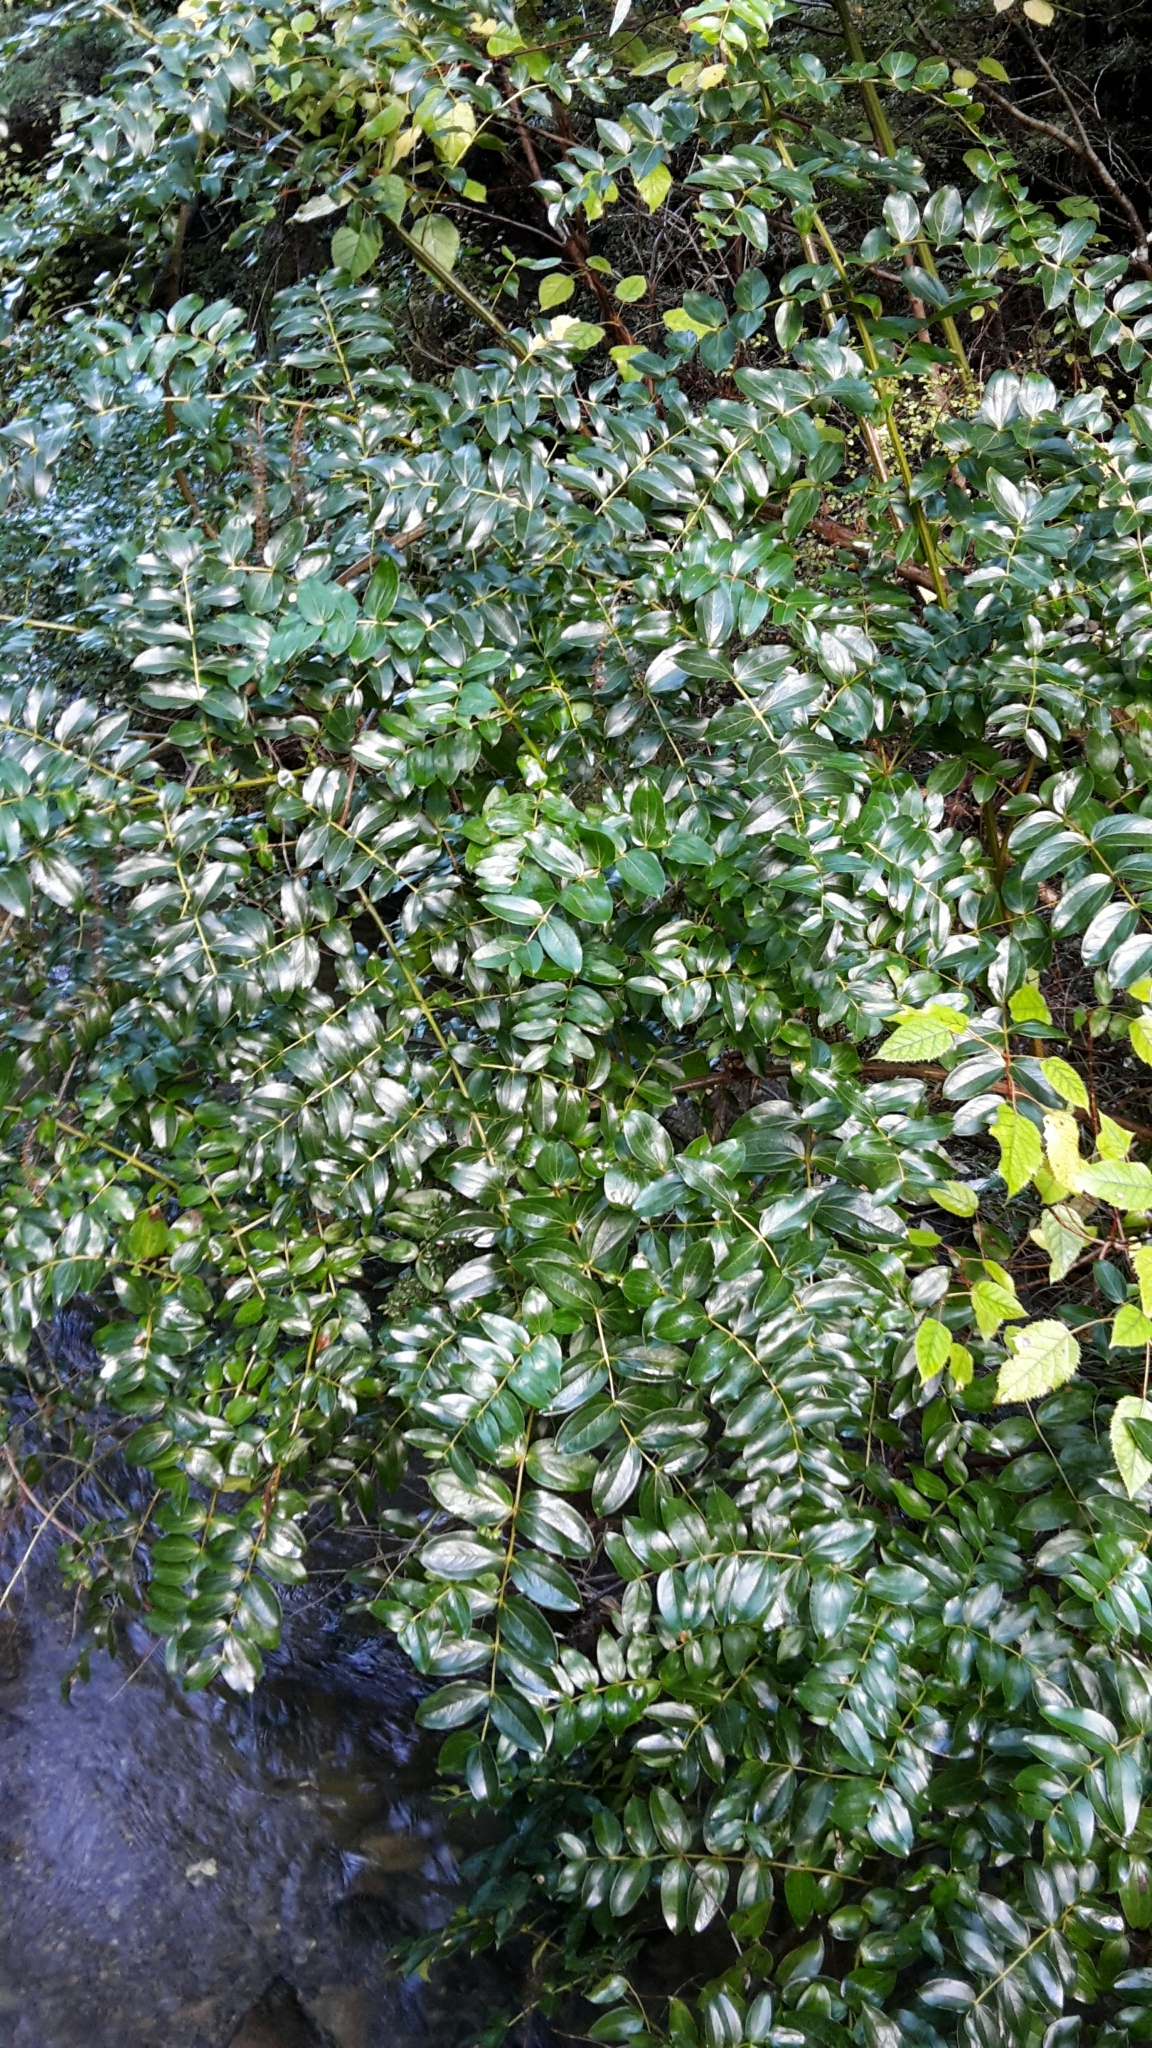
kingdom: Plantae
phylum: Tracheophyta
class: Magnoliopsida
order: Cucurbitales
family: Coriariaceae
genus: Coriaria
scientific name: Coriaria arborea
